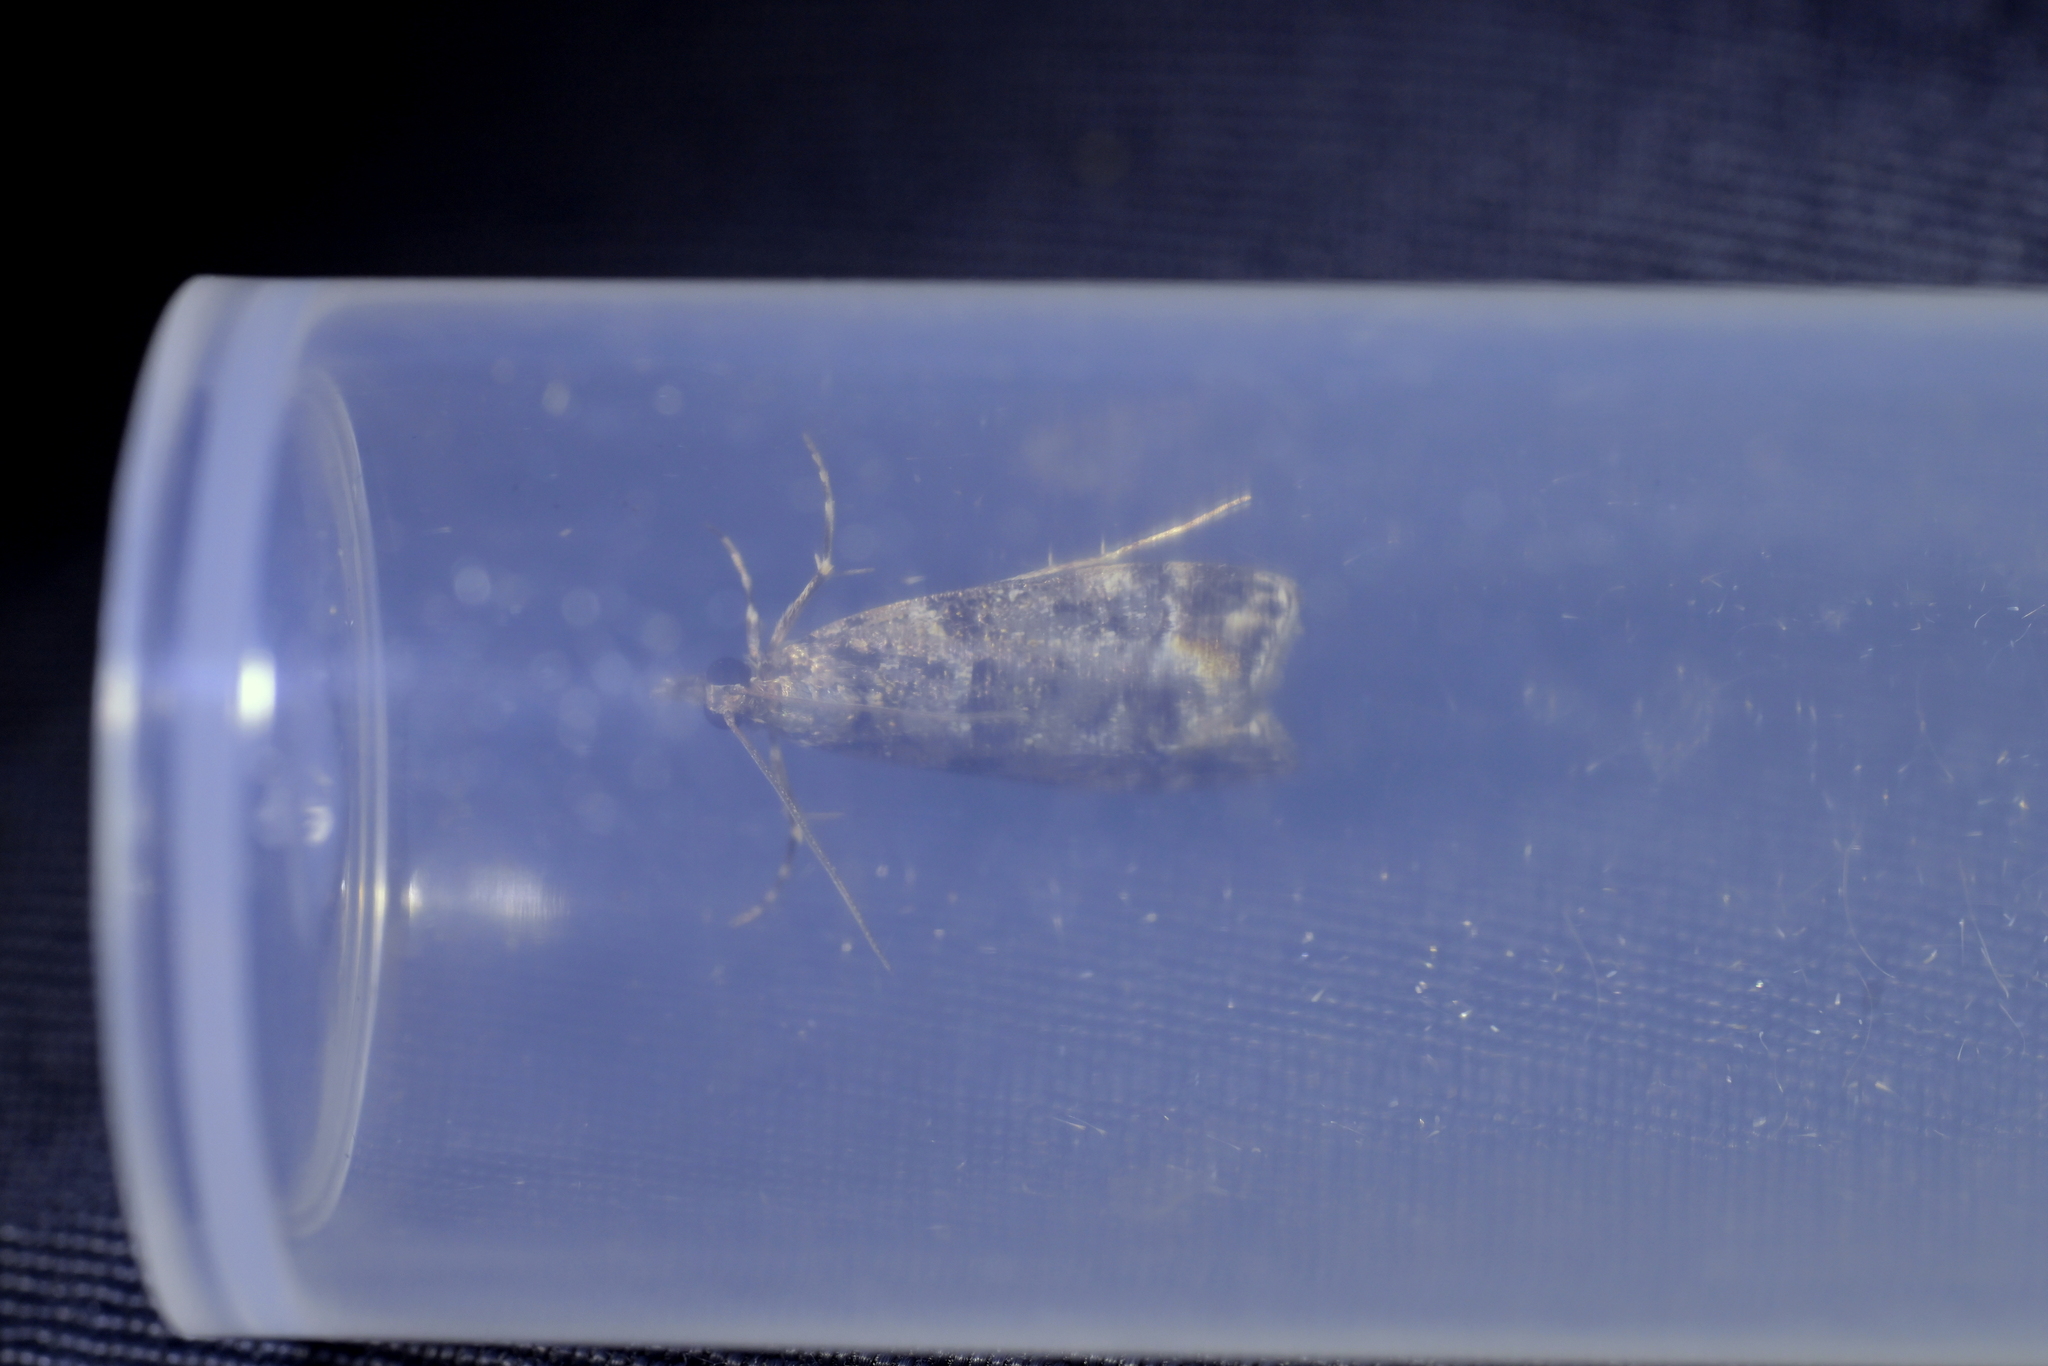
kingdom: Animalia
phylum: Arthropoda
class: Insecta
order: Lepidoptera
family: Crambidae
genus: Eudonia
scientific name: Eudonia minualis
